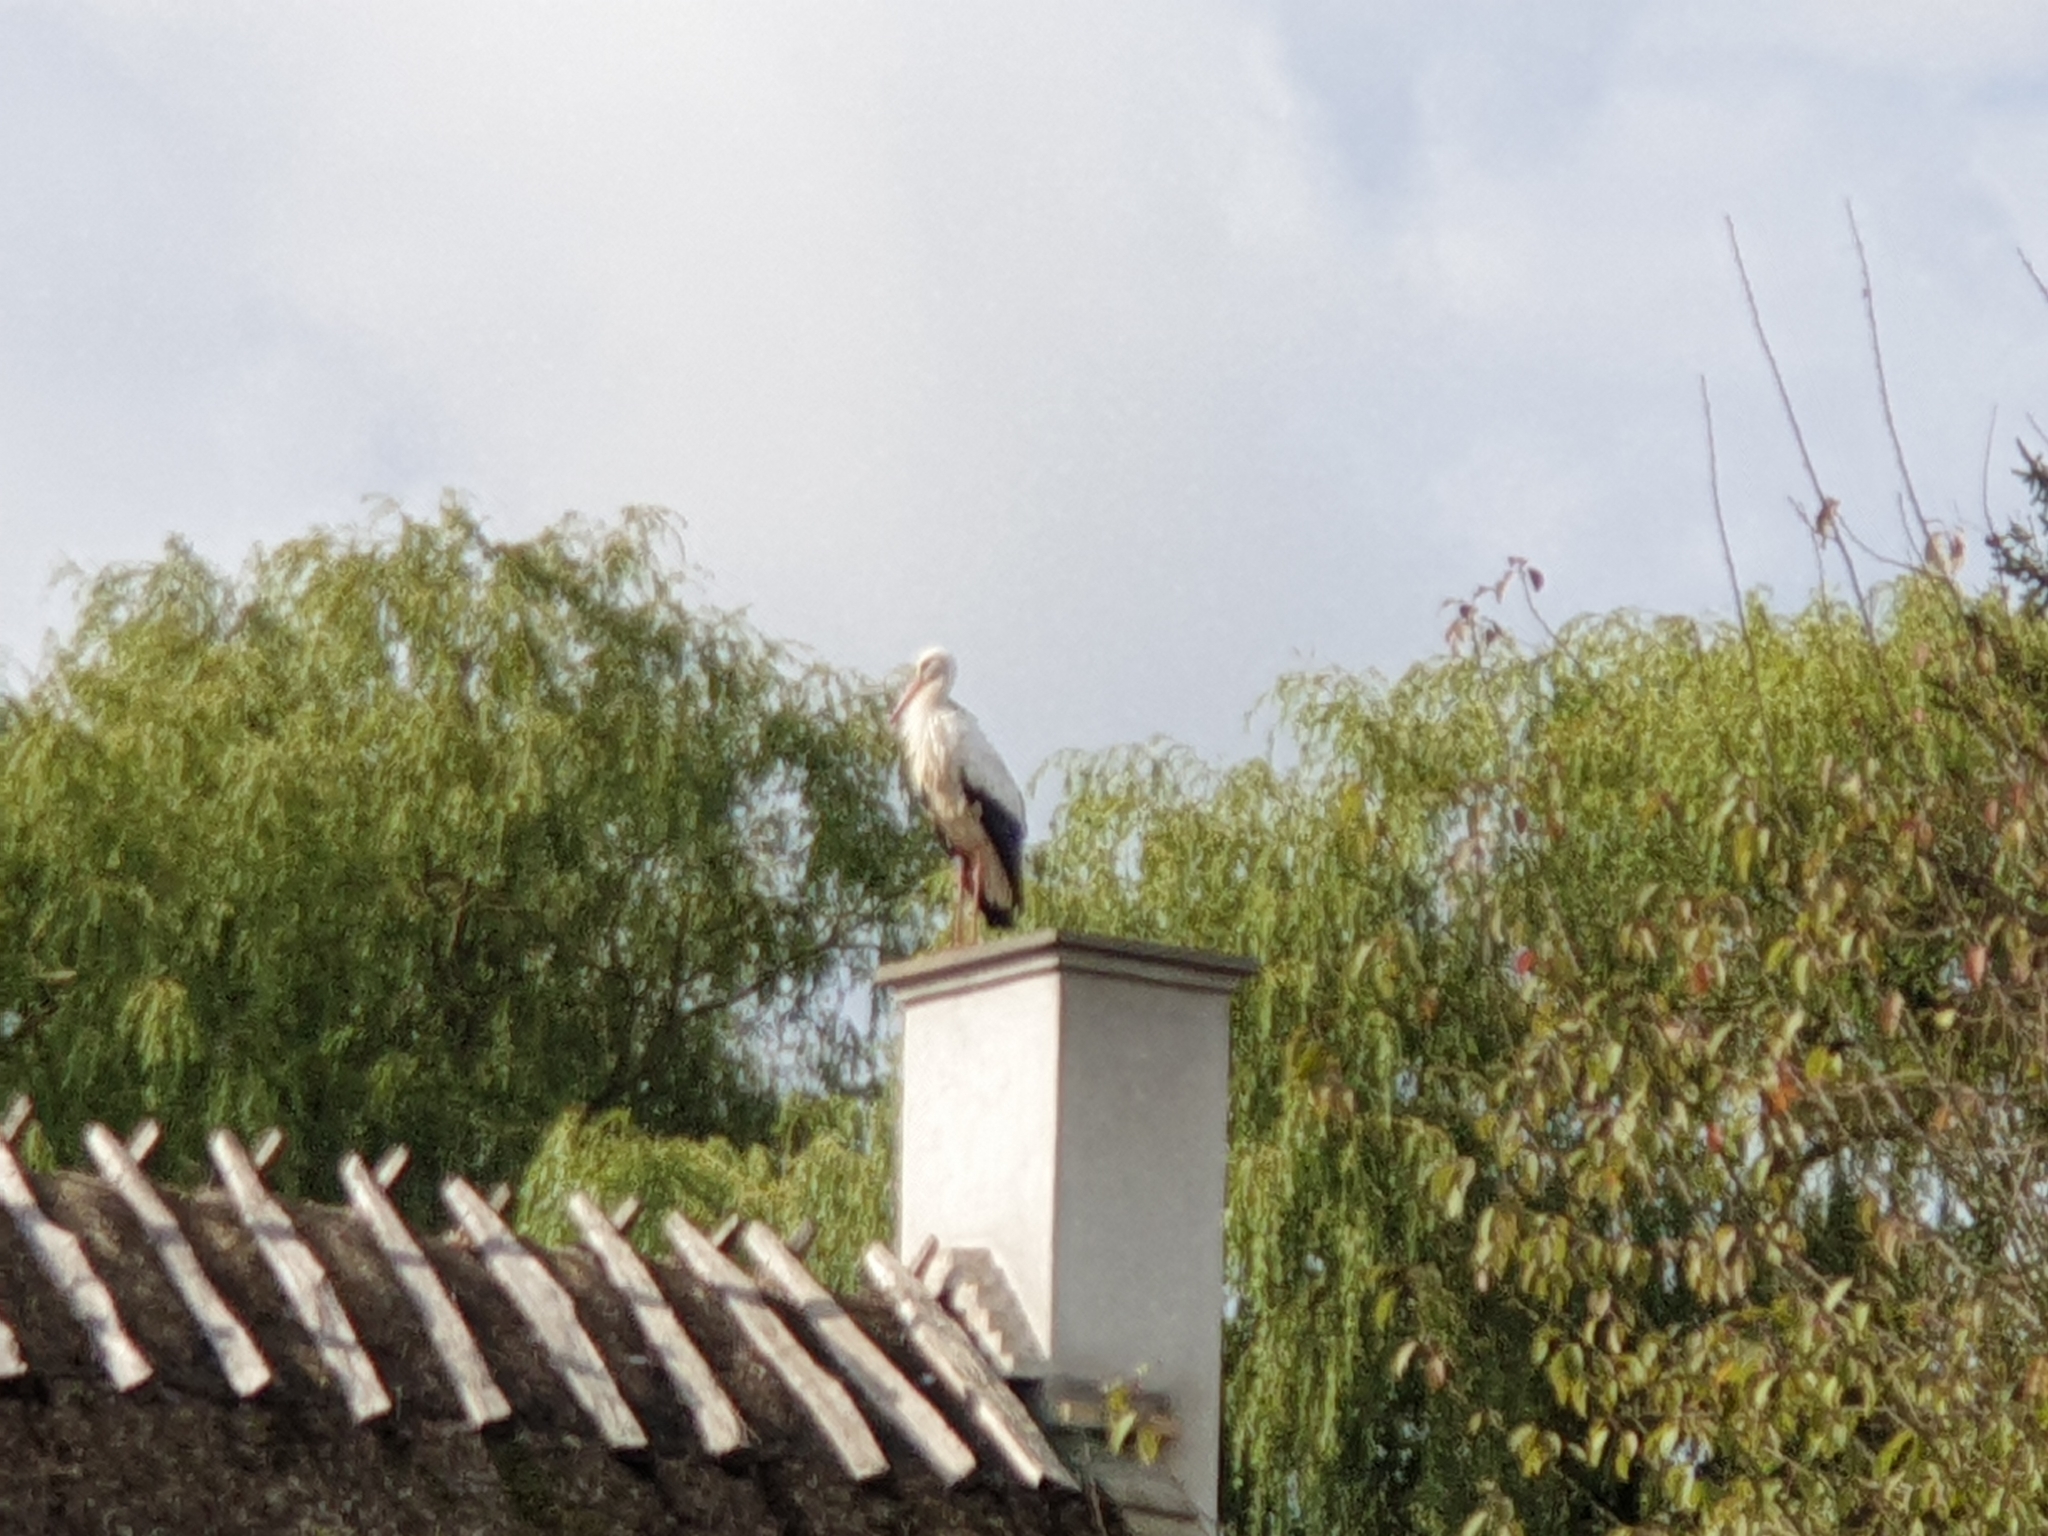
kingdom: Animalia
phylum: Chordata
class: Aves
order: Ciconiiformes
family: Ciconiidae
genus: Ciconia
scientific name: Ciconia ciconia
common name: White stork
